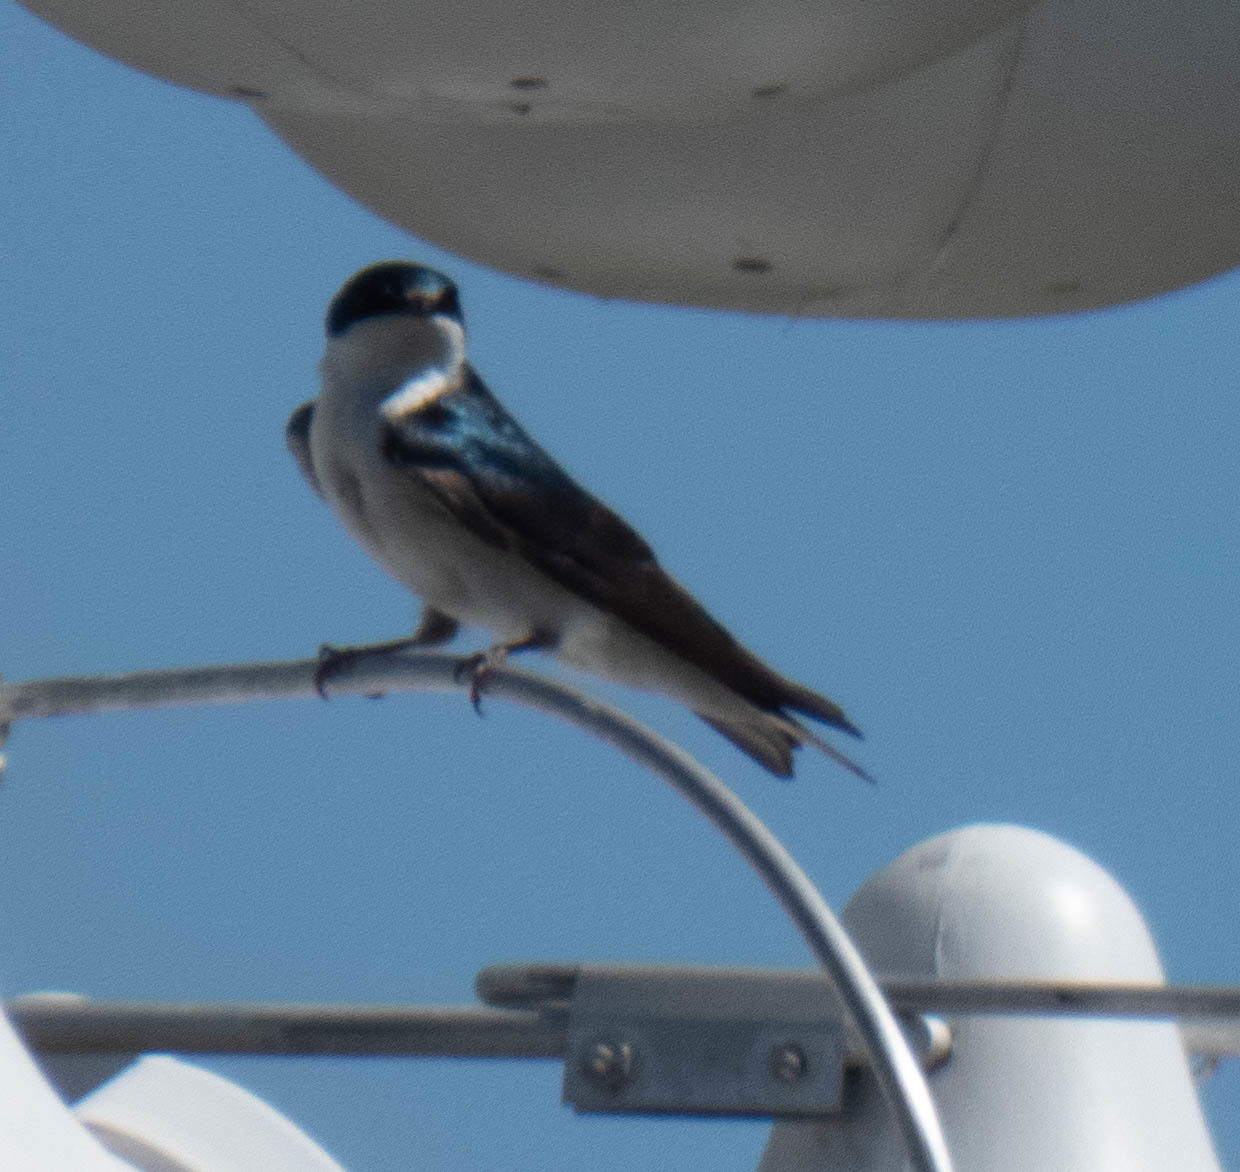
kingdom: Animalia
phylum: Chordata
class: Aves
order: Passeriformes
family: Hirundinidae
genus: Tachycineta
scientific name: Tachycineta bicolor
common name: Tree swallow
